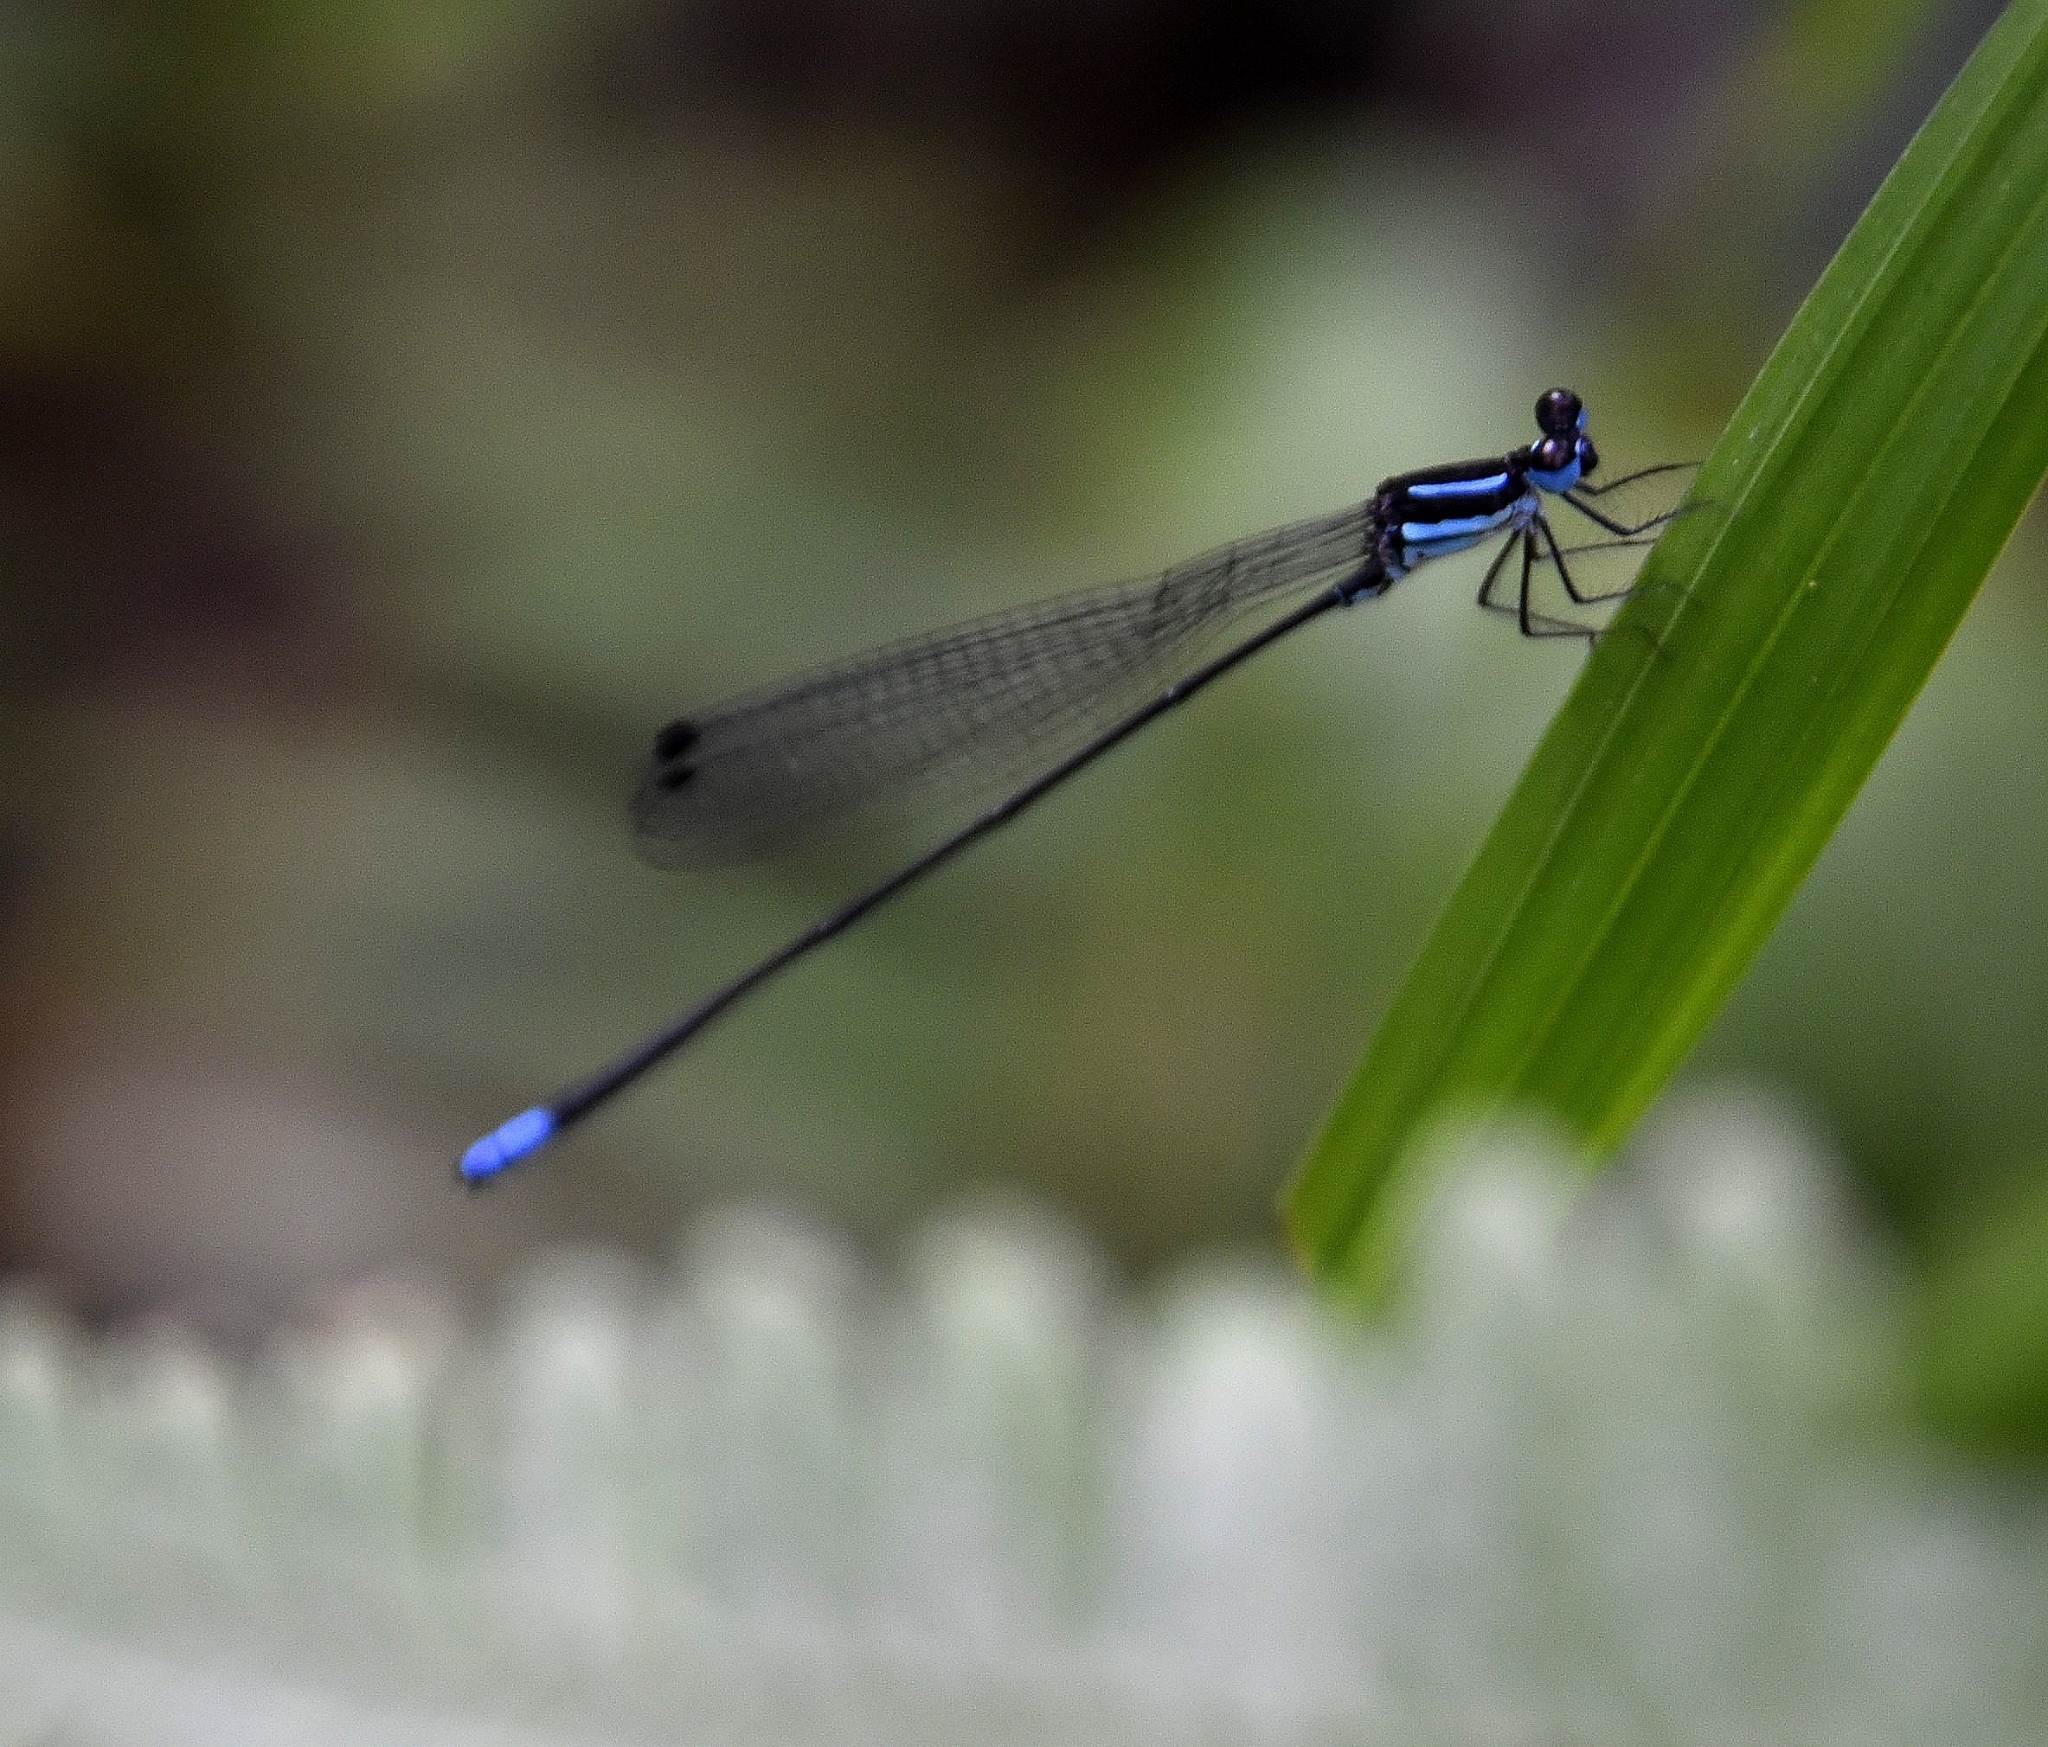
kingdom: Animalia
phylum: Arthropoda
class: Insecta
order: Odonata
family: Platycnemididae
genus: Melanoneura
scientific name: Melanoneura bilineata
